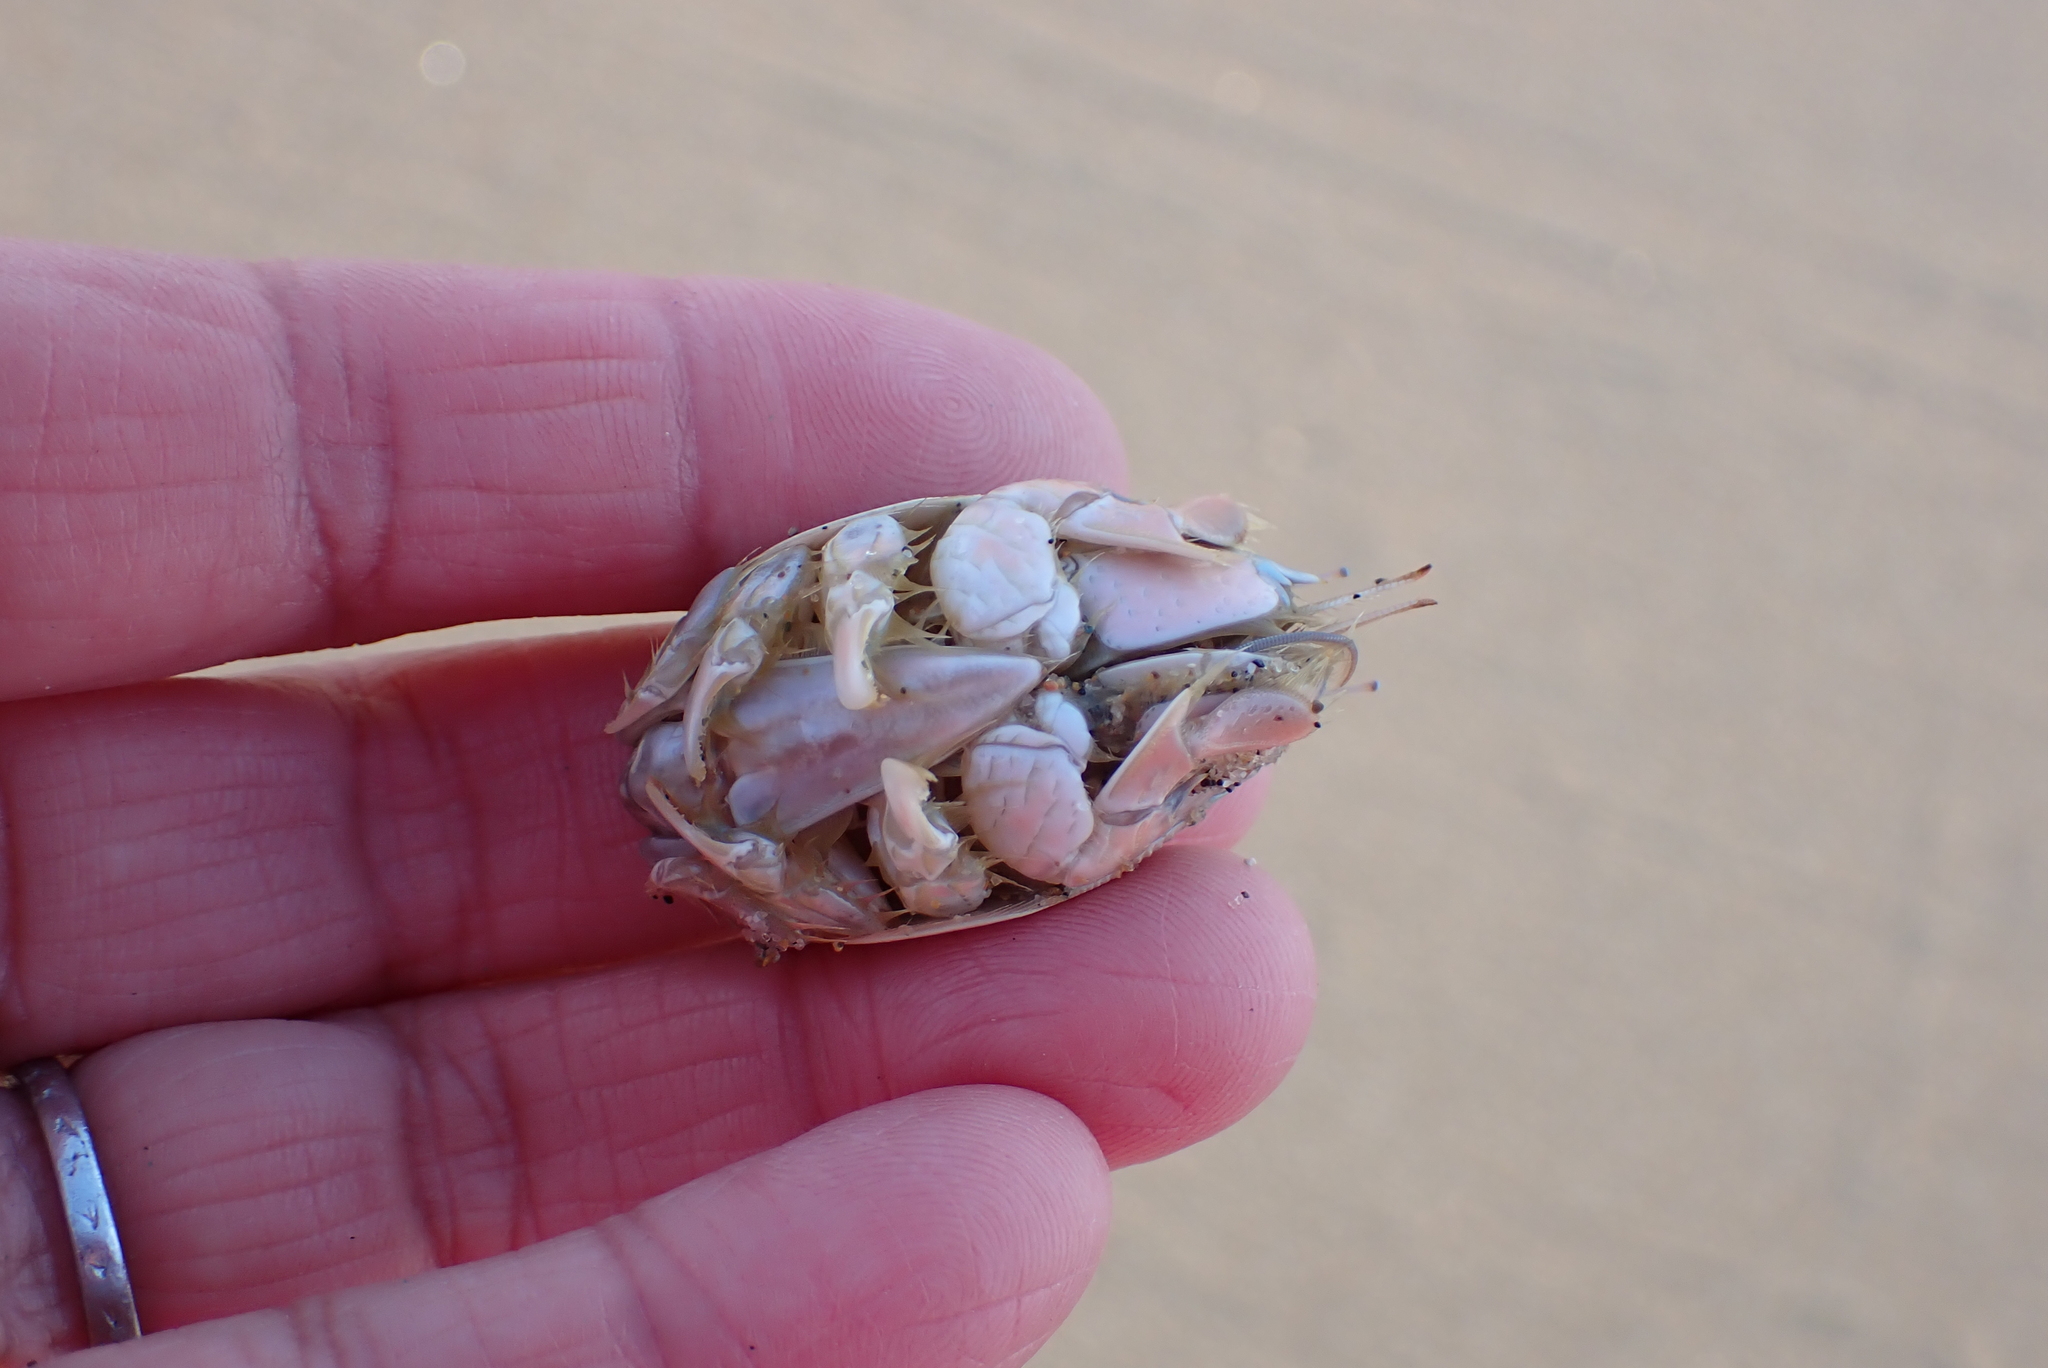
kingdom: Animalia
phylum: Arthropoda
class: Malacostraca
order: Decapoda
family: Hippidae
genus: Emerita
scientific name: Emerita analoga
